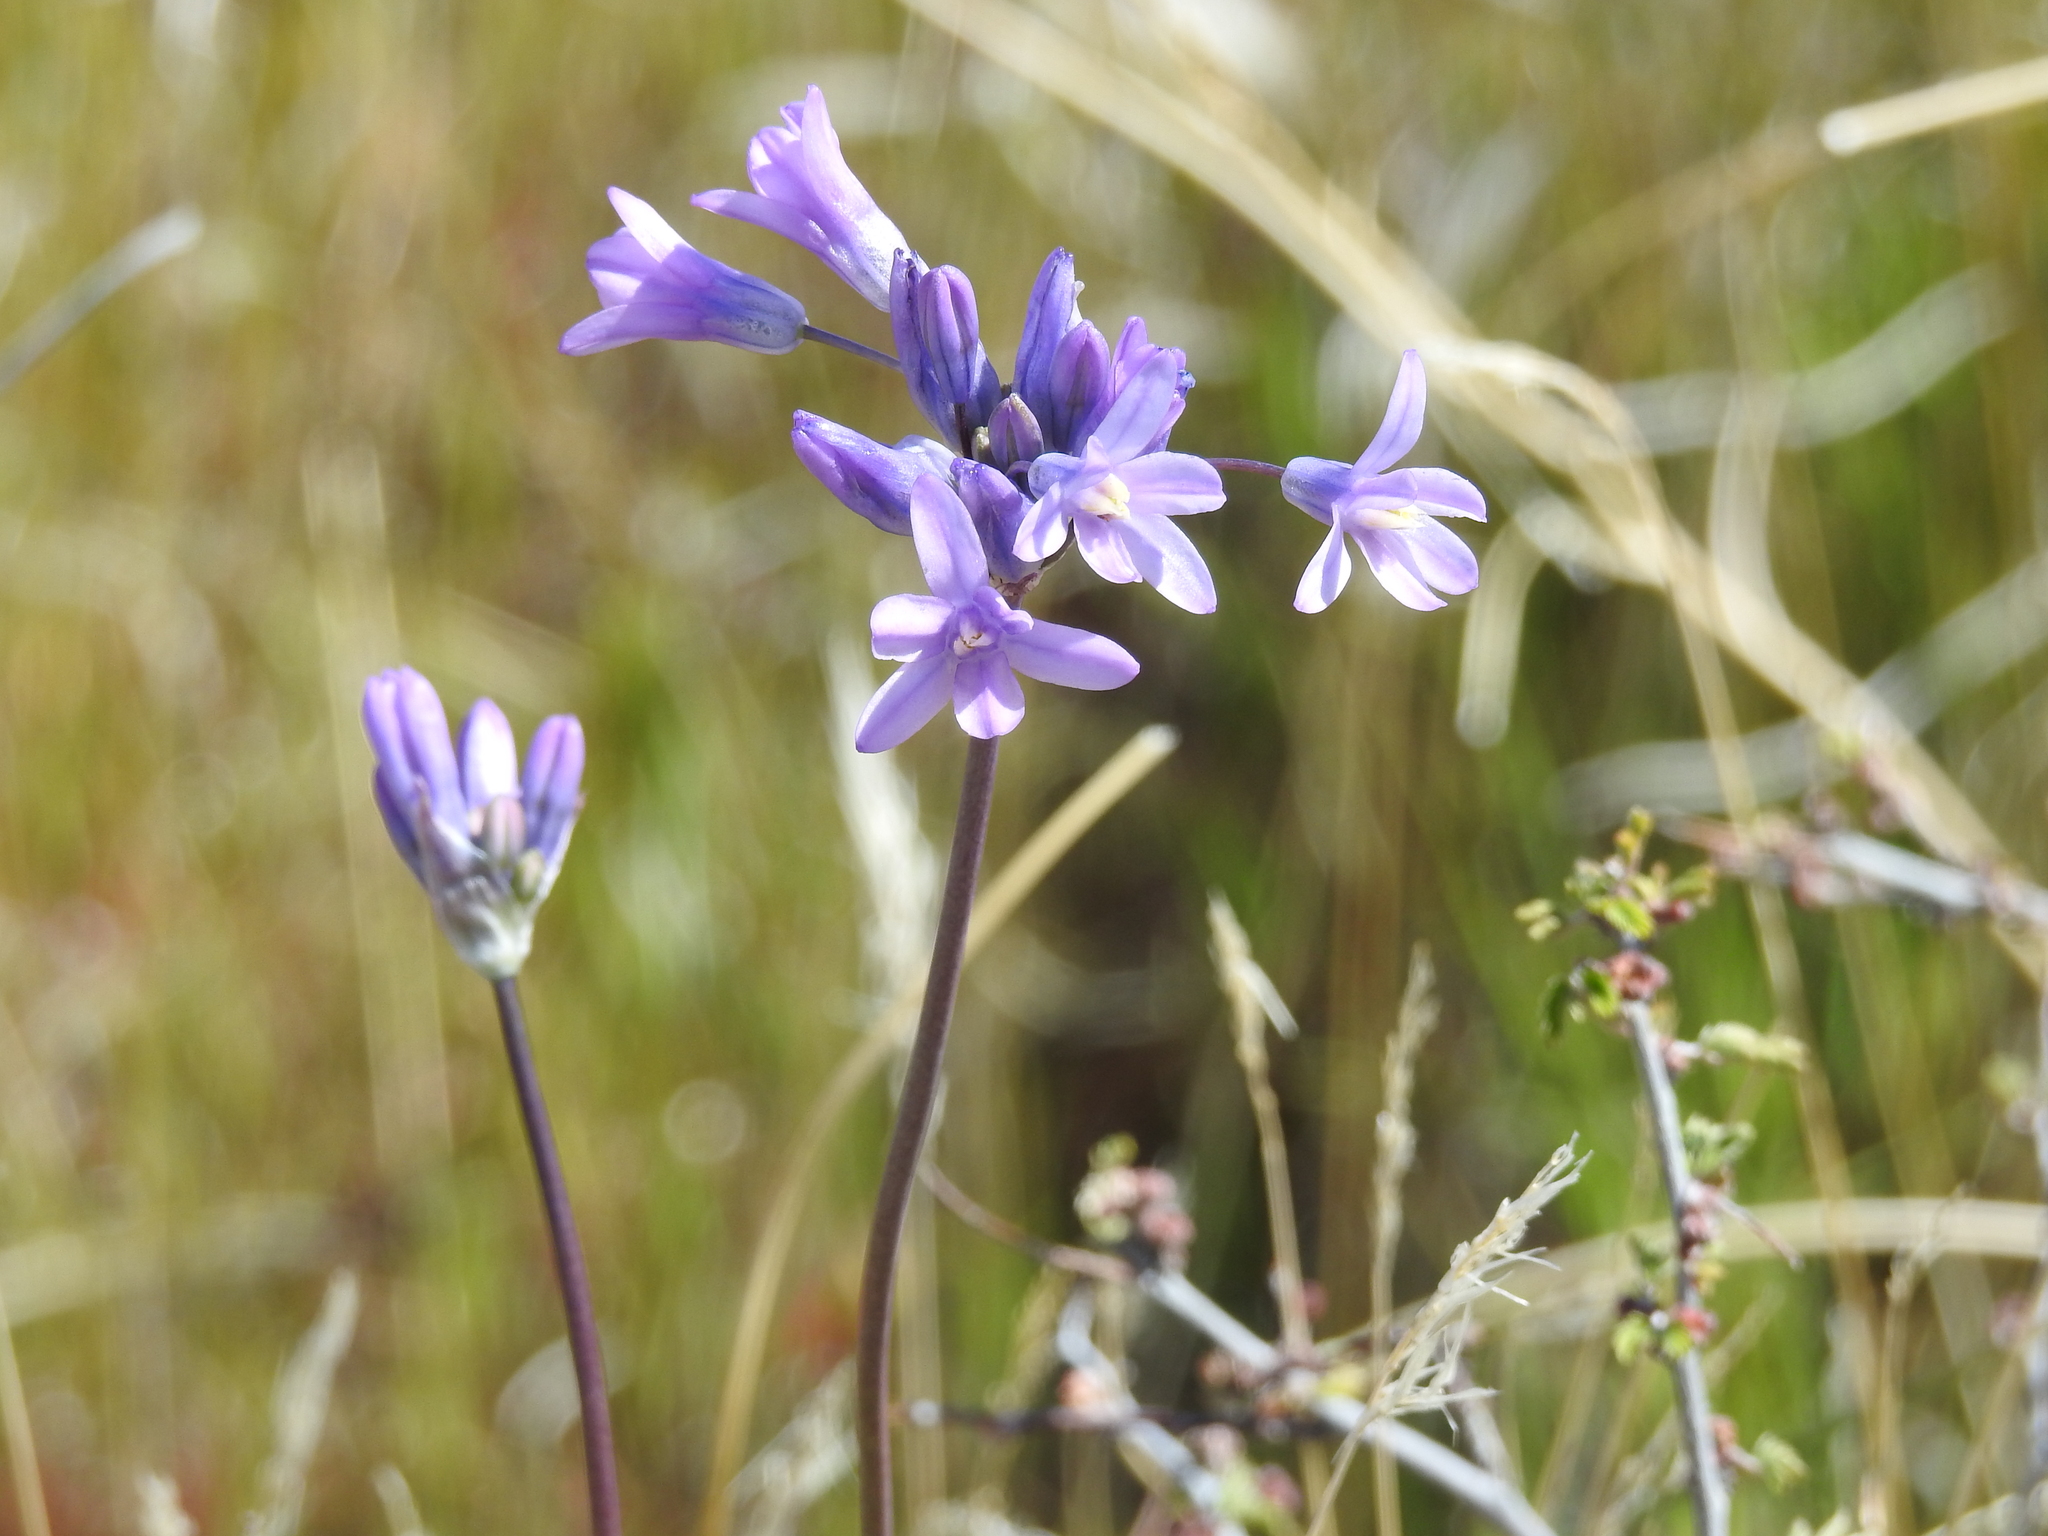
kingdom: Plantae
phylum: Tracheophyta
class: Liliopsida
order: Asparagales
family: Asparagaceae
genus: Dipterostemon
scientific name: Dipterostemon capitatus
